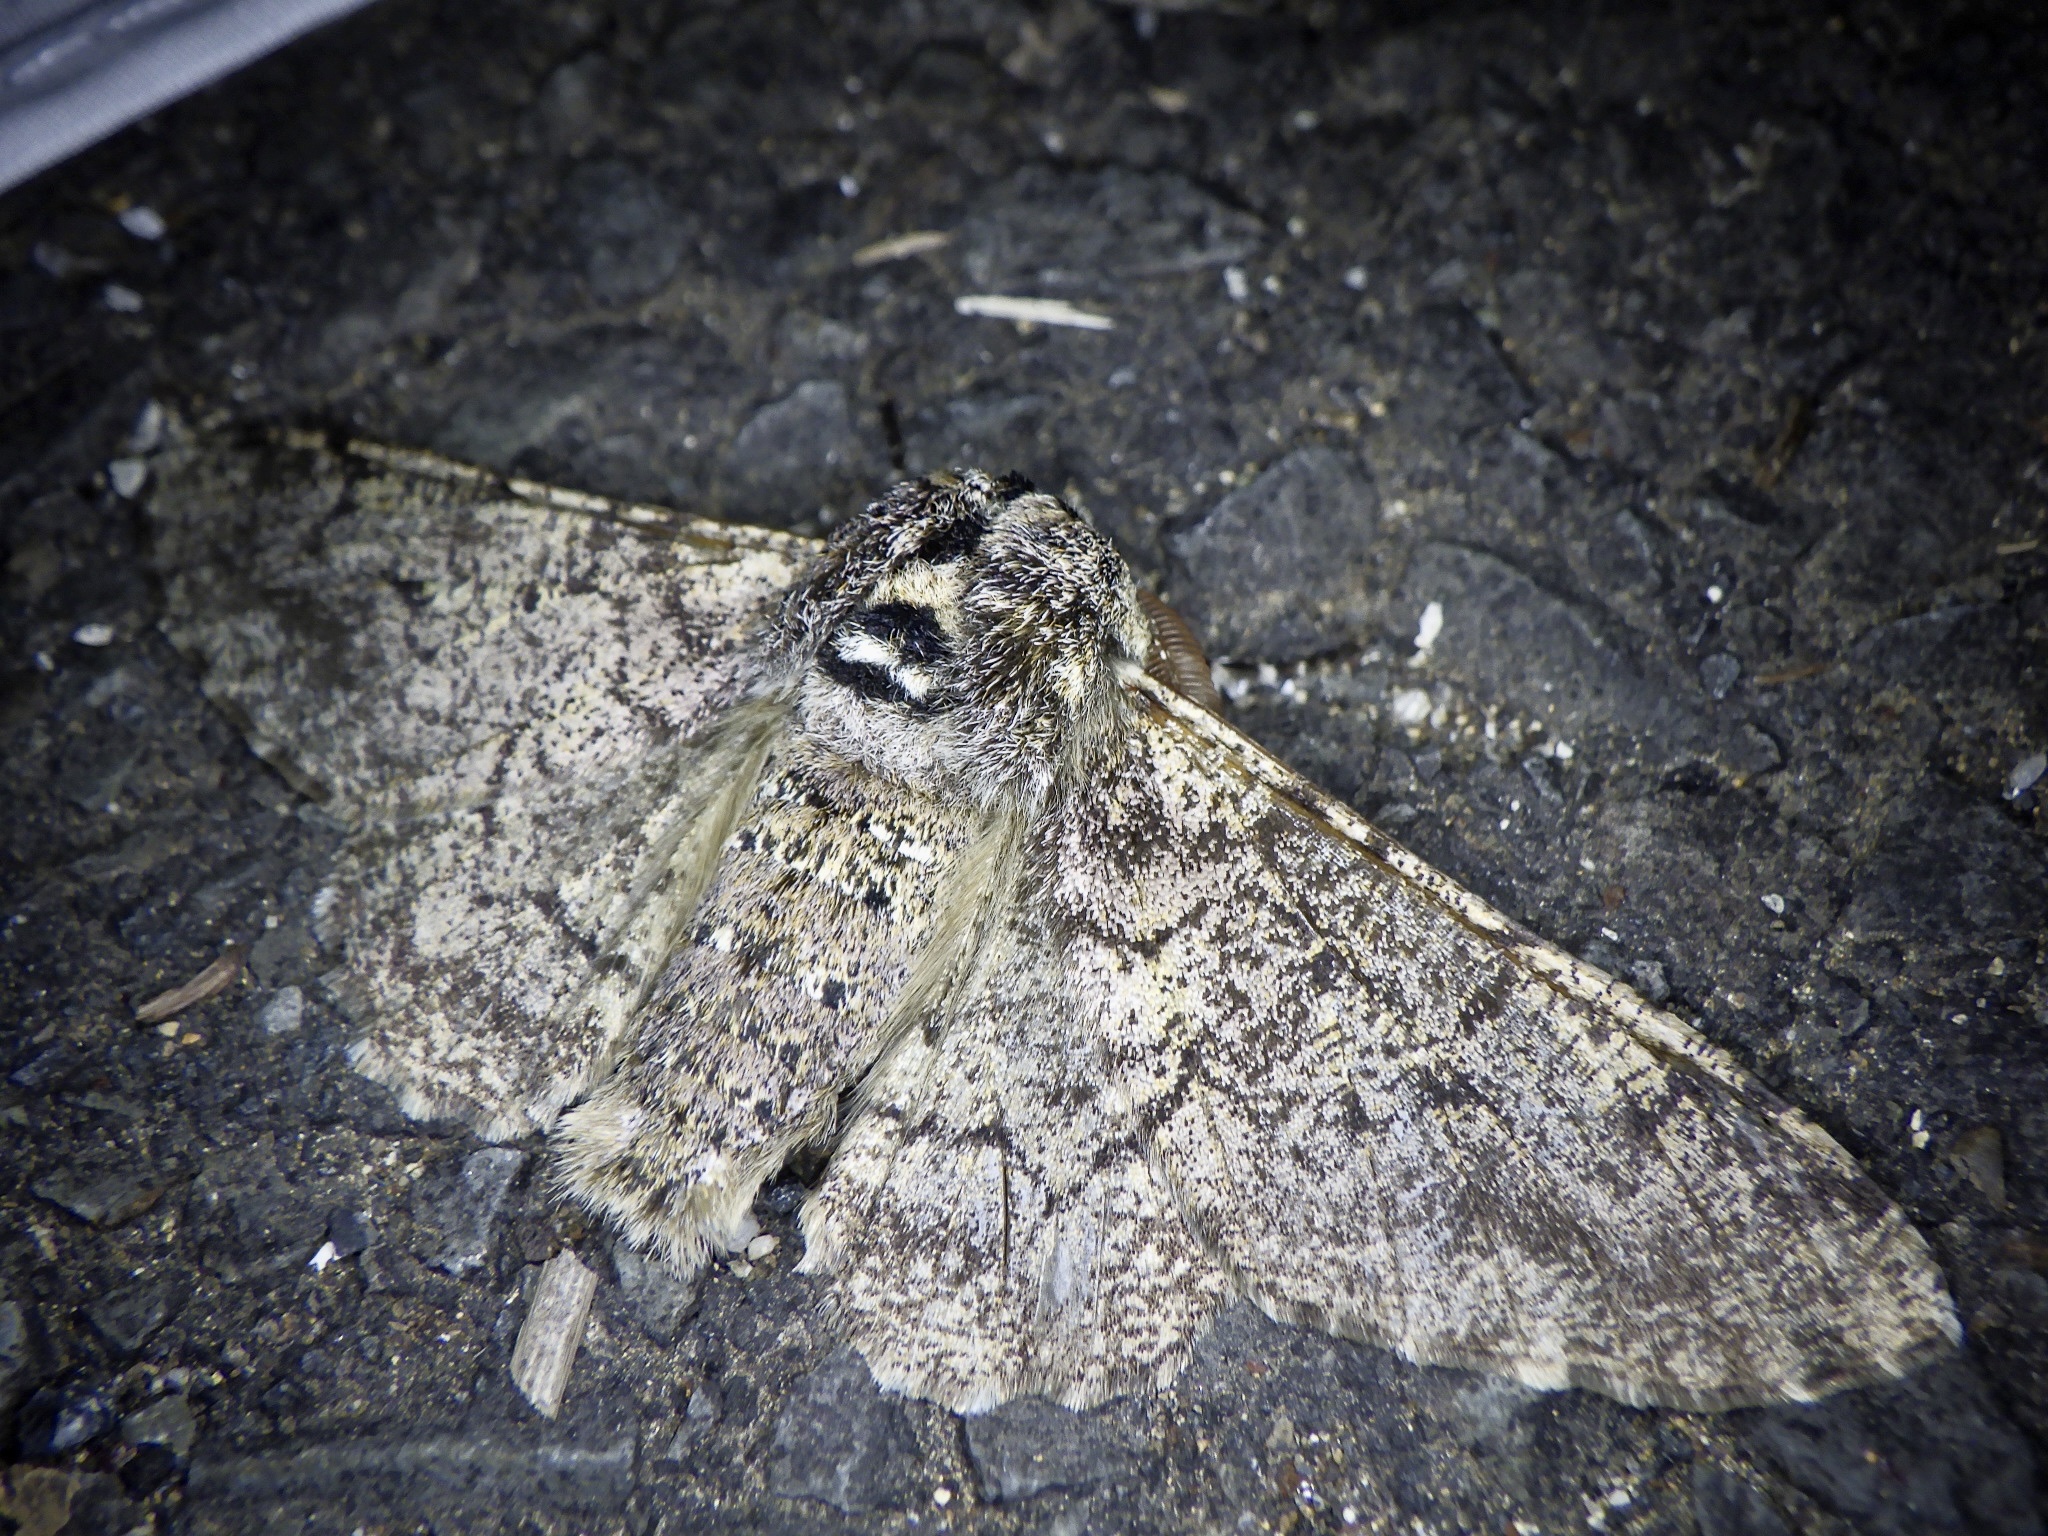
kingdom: Animalia
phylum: Arthropoda
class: Insecta
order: Lepidoptera
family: Geometridae
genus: Biston
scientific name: Biston robustum
